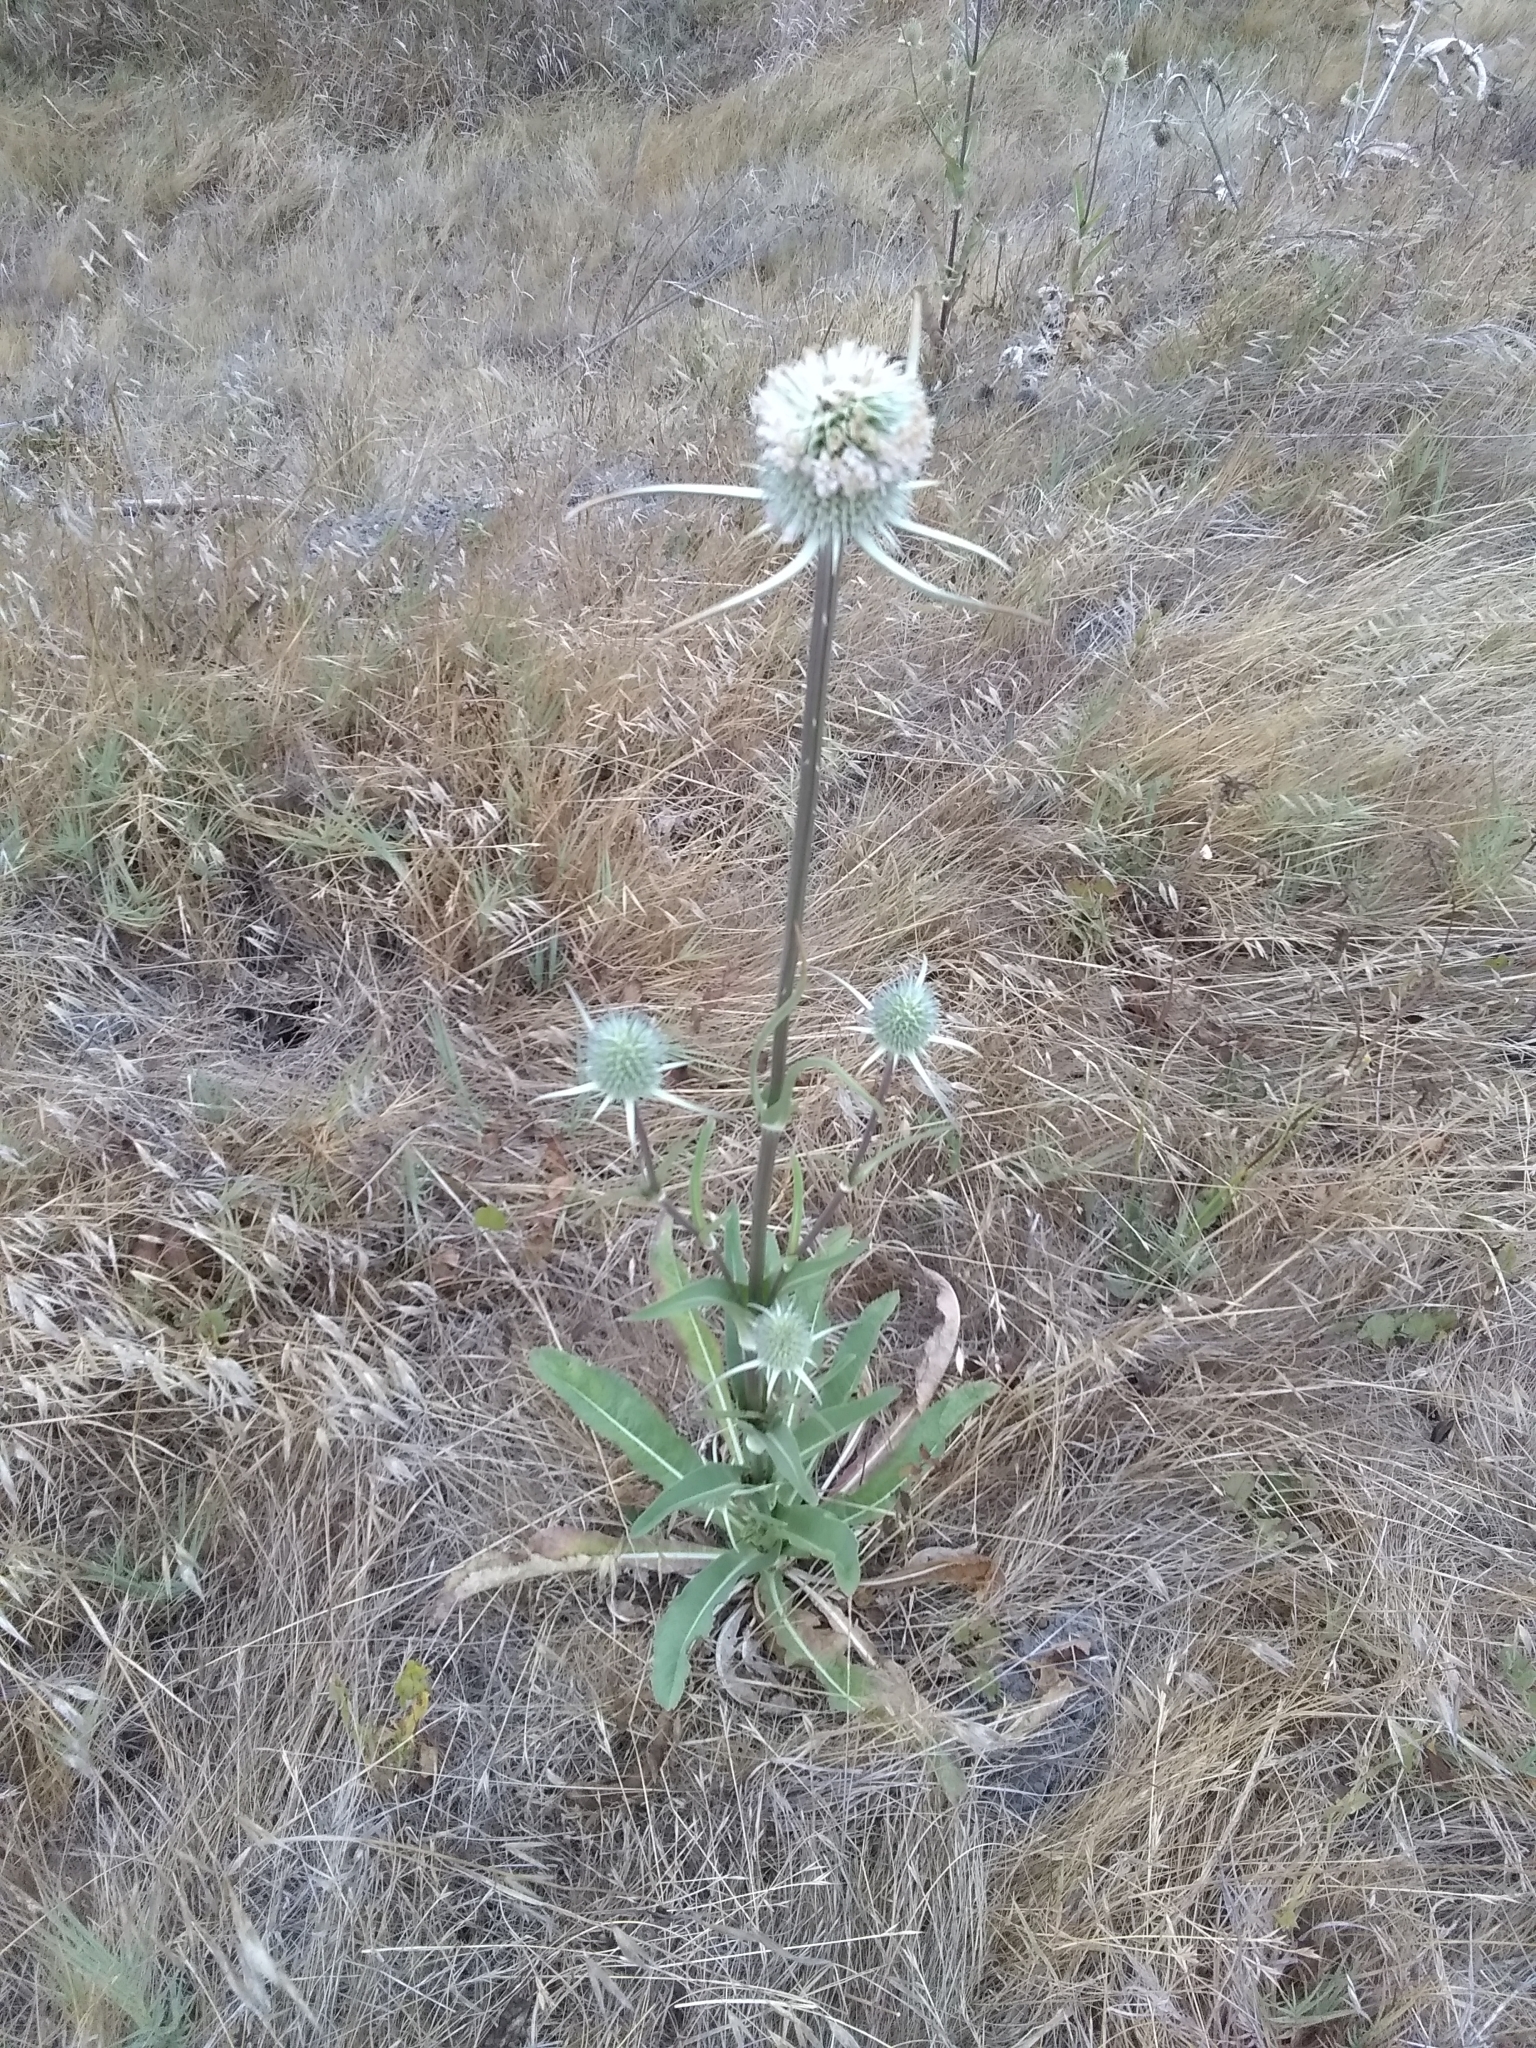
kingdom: Plantae
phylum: Tracheophyta
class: Magnoliopsida
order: Dipsacales
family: Caprifoliaceae
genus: Dipsacus
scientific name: Dipsacus sativus
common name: Fuller's teasel
